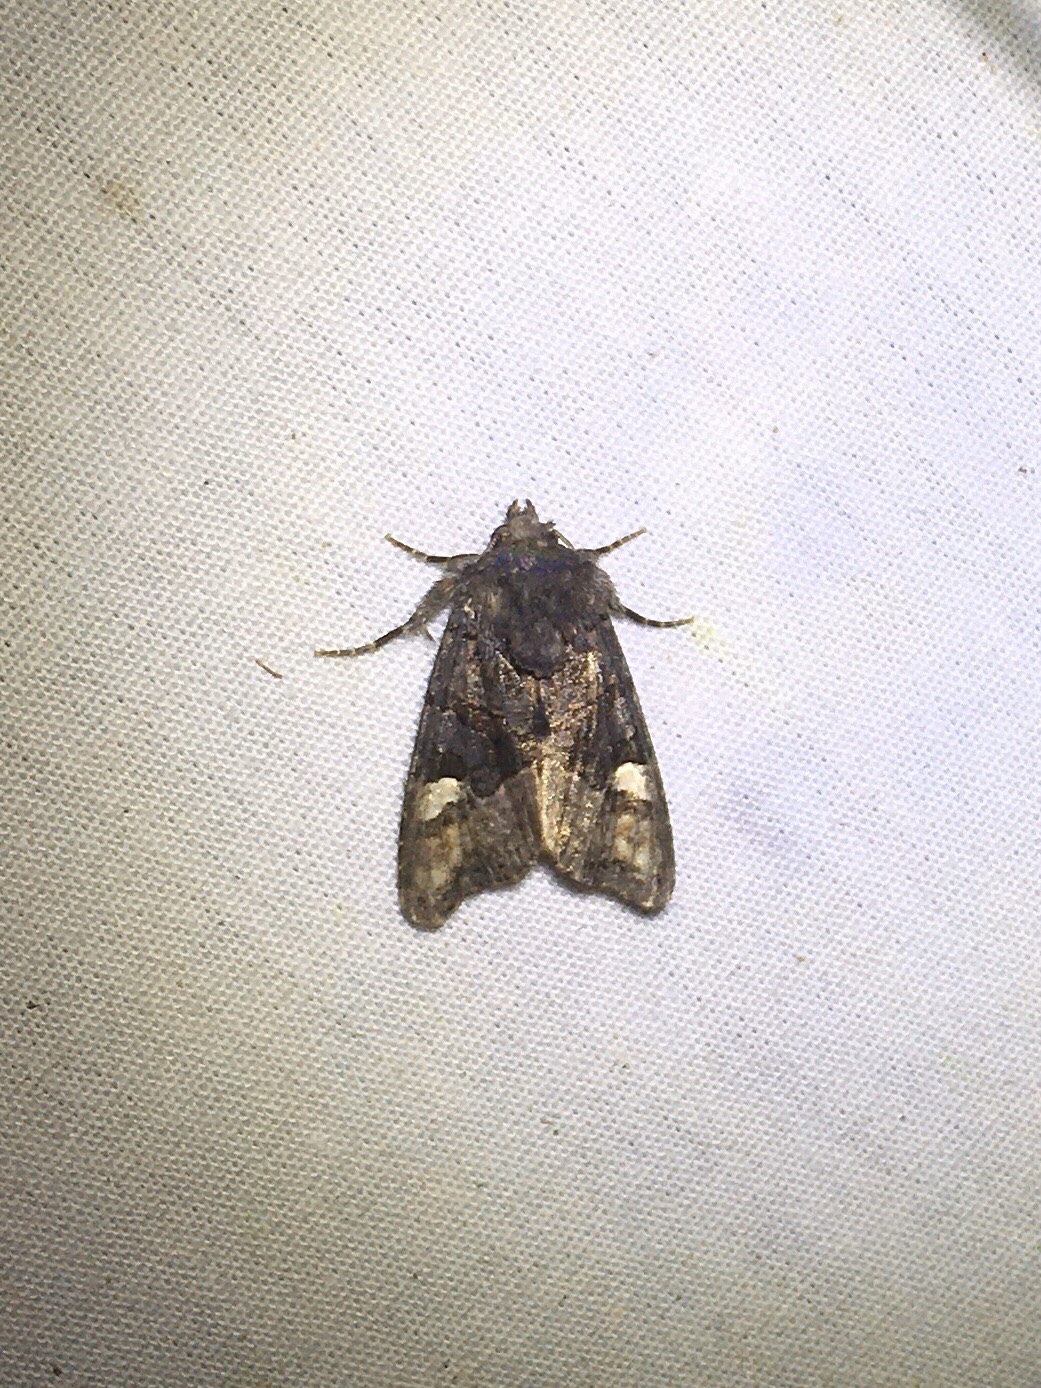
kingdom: Animalia
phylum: Arthropoda
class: Insecta
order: Lepidoptera
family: Noctuidae
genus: Euplexia
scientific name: Euplexia benesimilis
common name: American angle shades
